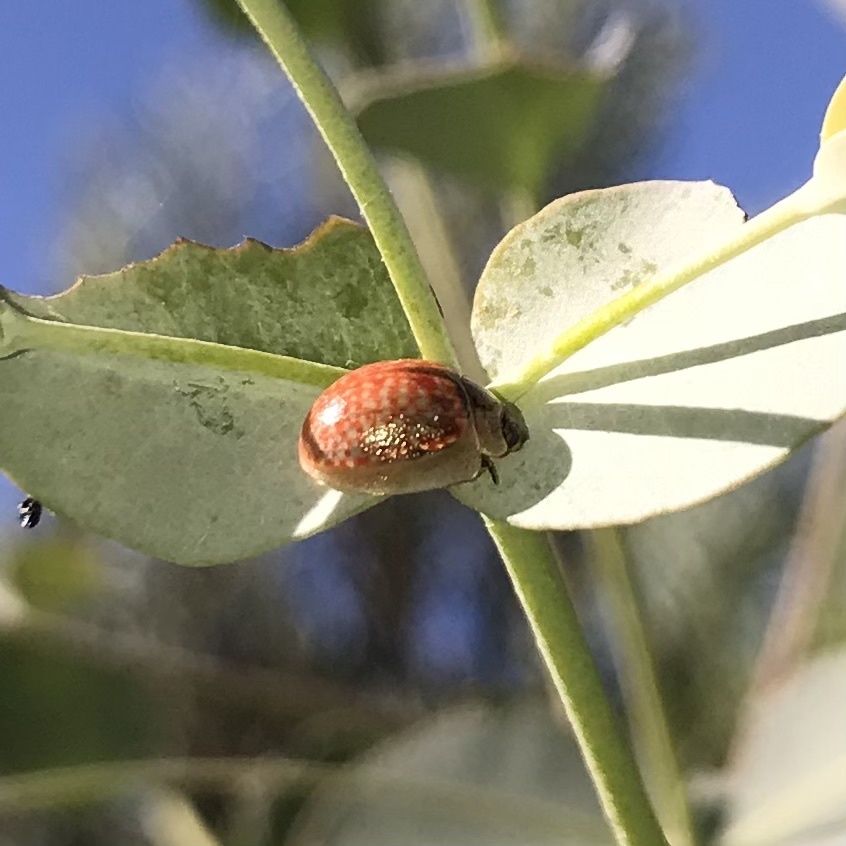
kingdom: Animalia
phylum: Arthropoda
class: Insecta
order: Coleoptera
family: Chrysomelidae
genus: Paropsisterna
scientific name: Paropsisterna m-fuscum
